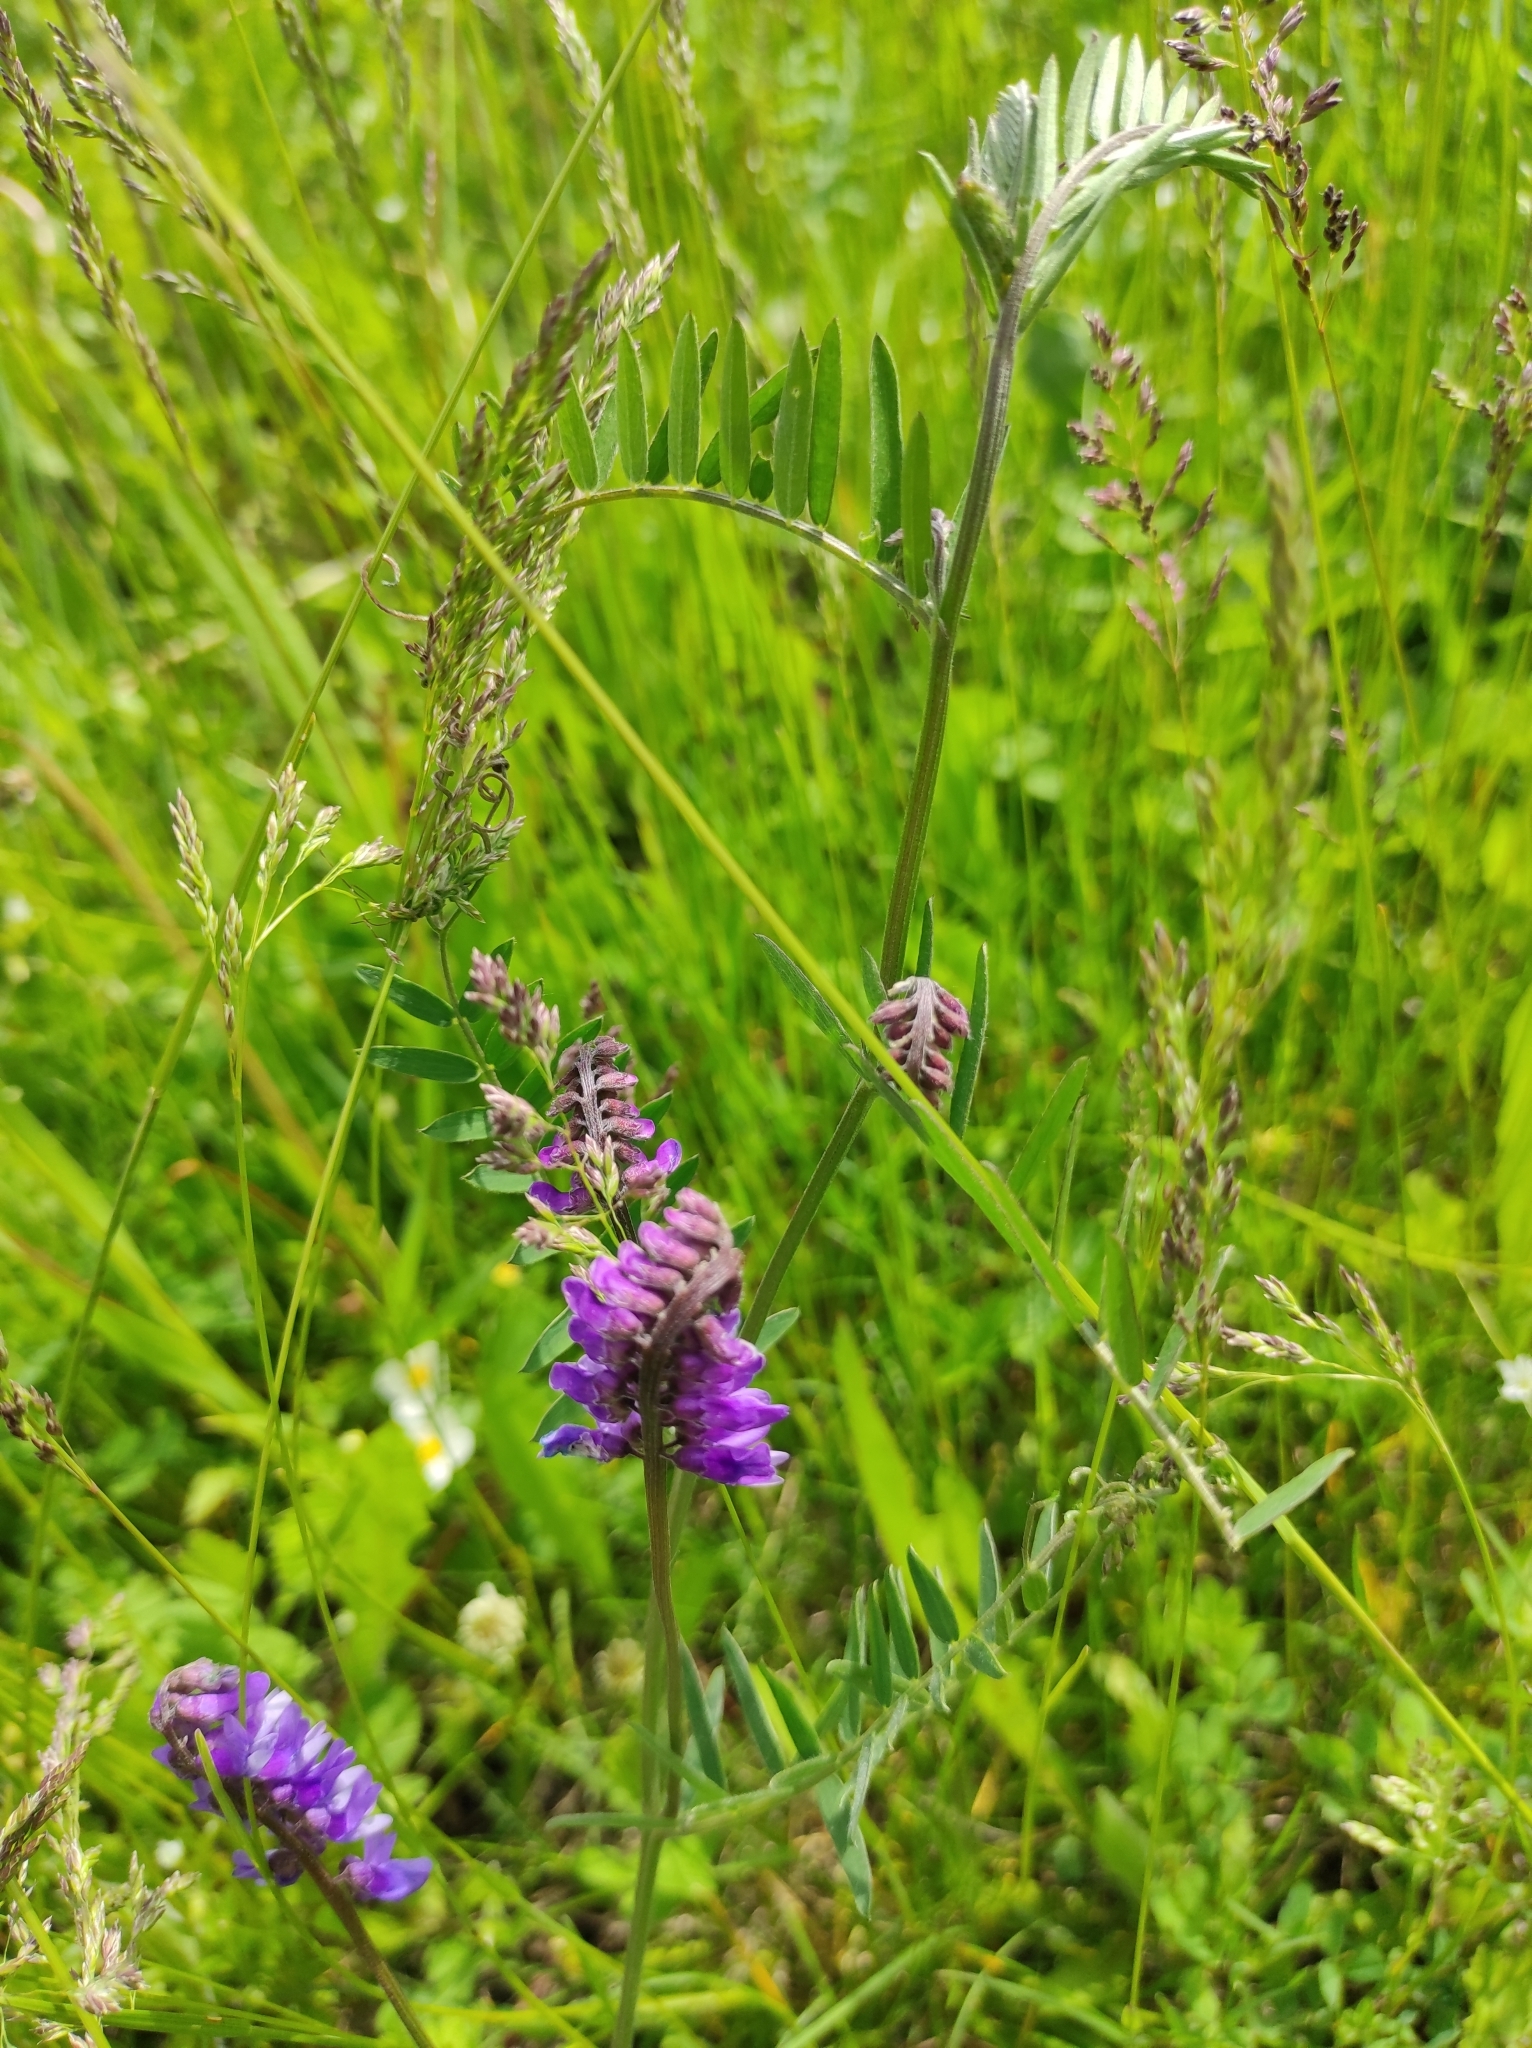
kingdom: Plantae
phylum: Tracheophyta
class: Magnoliopsida
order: Fabales
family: Fabaceae
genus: Vicia
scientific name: Vicia cracca
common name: Bird vetch
